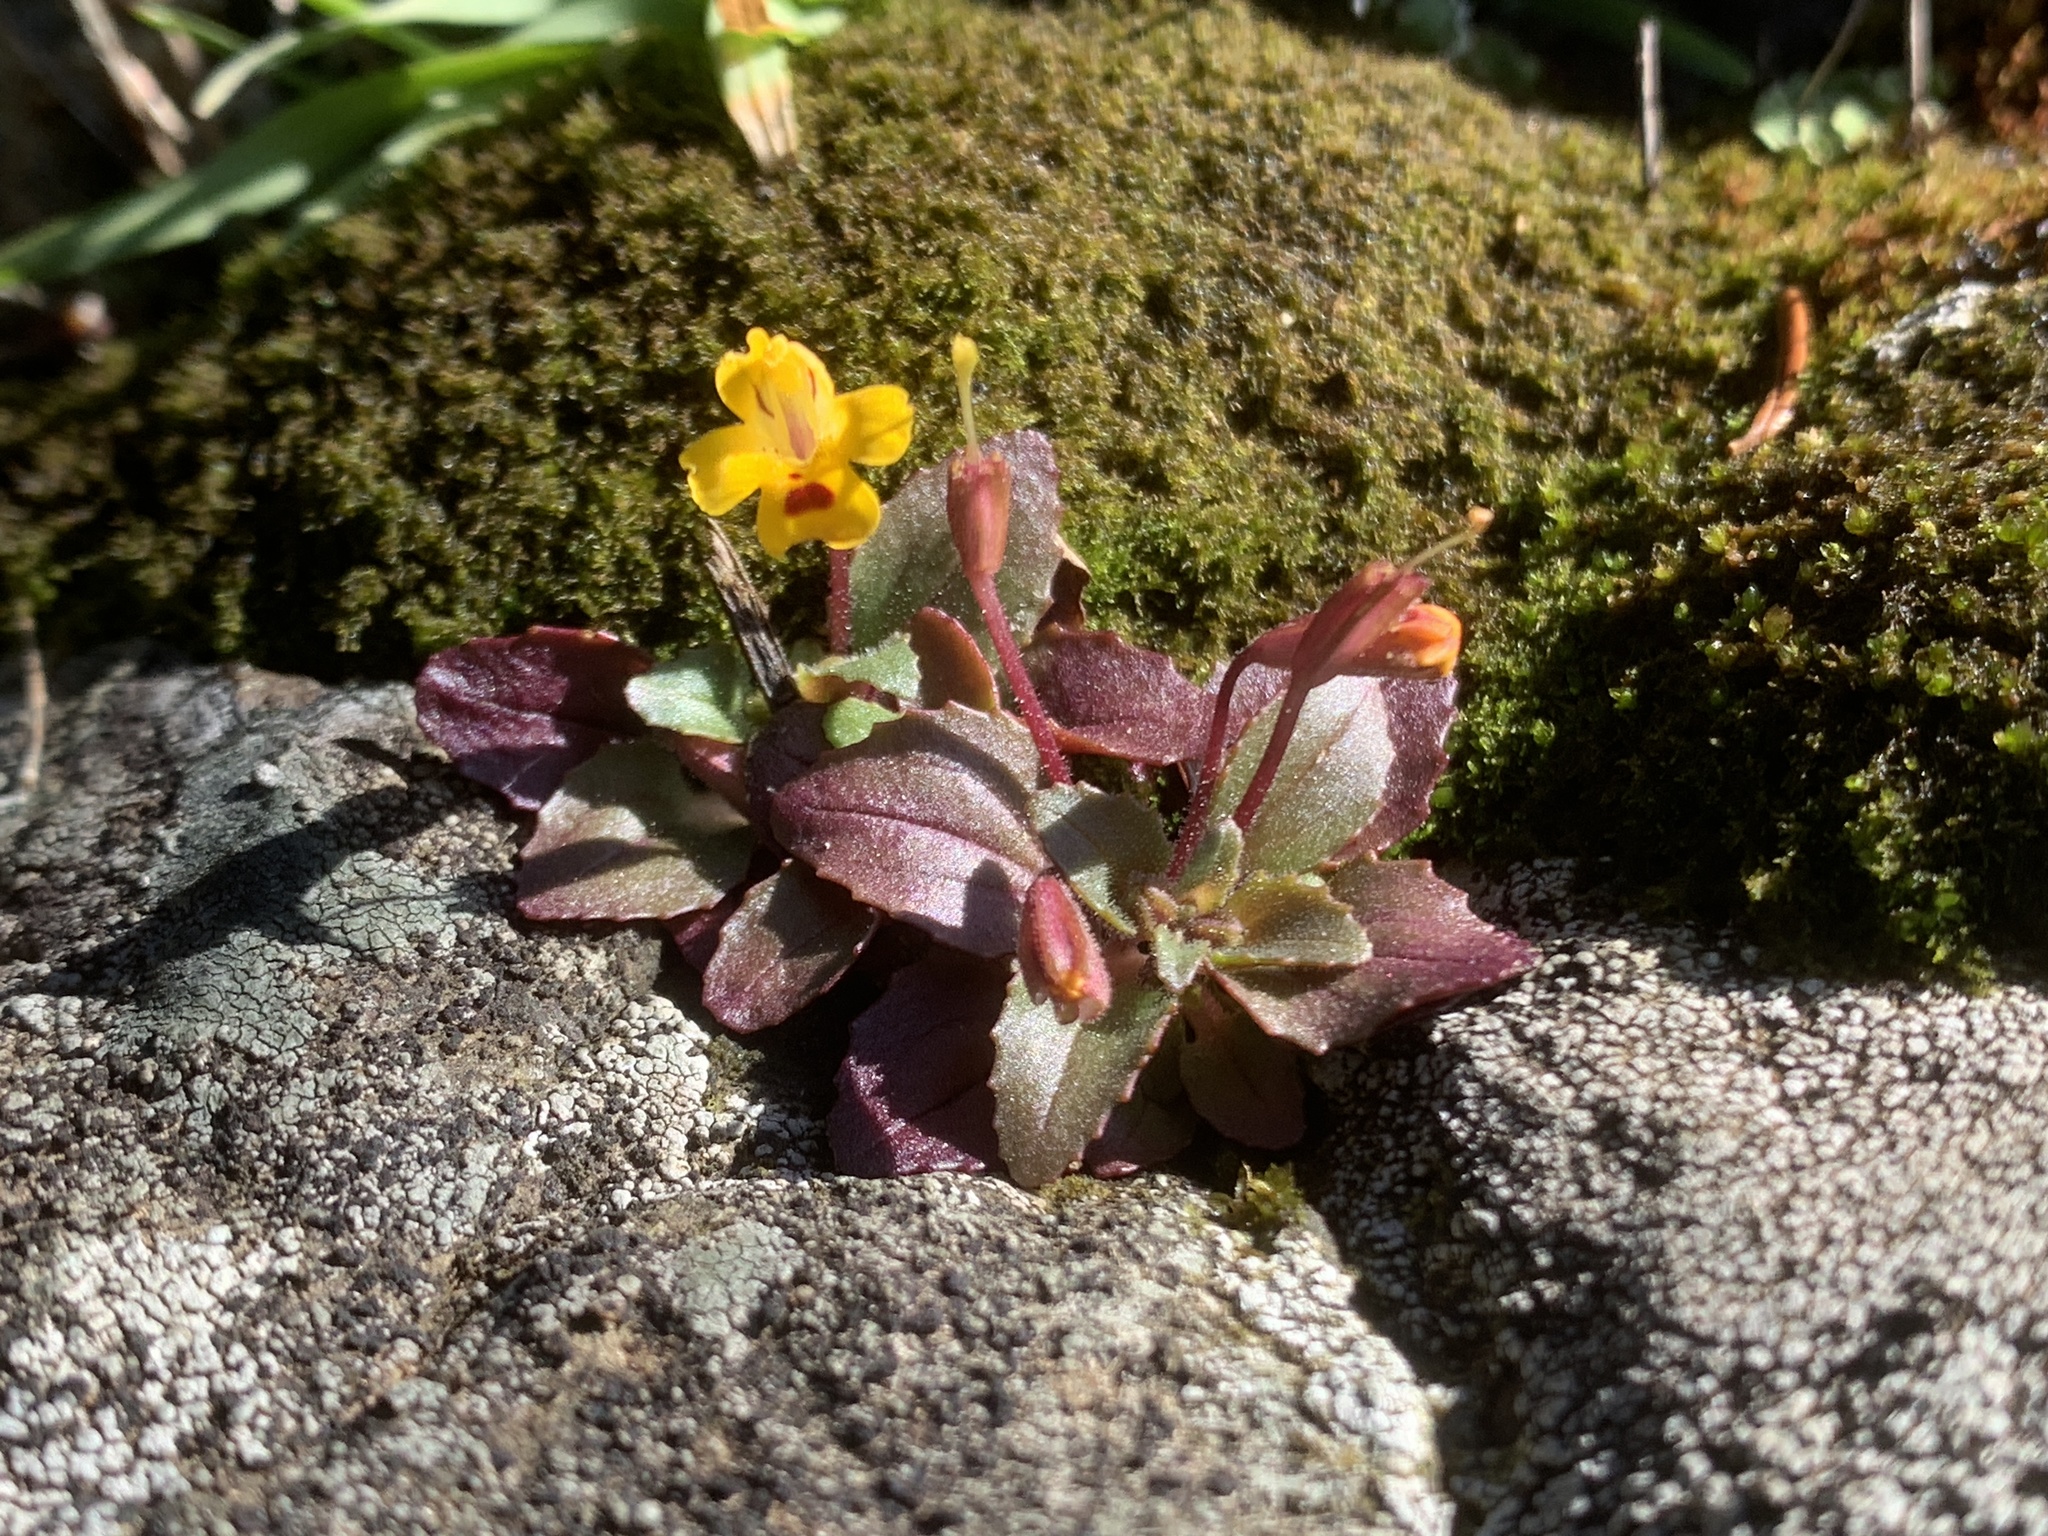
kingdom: Plantae
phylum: Tracheophyta
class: Magnoliopsida
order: Lamiales
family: Phrymaceae
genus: Erythranthe
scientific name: Erythranthe alsinoides
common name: Chickweed monkeyflower
